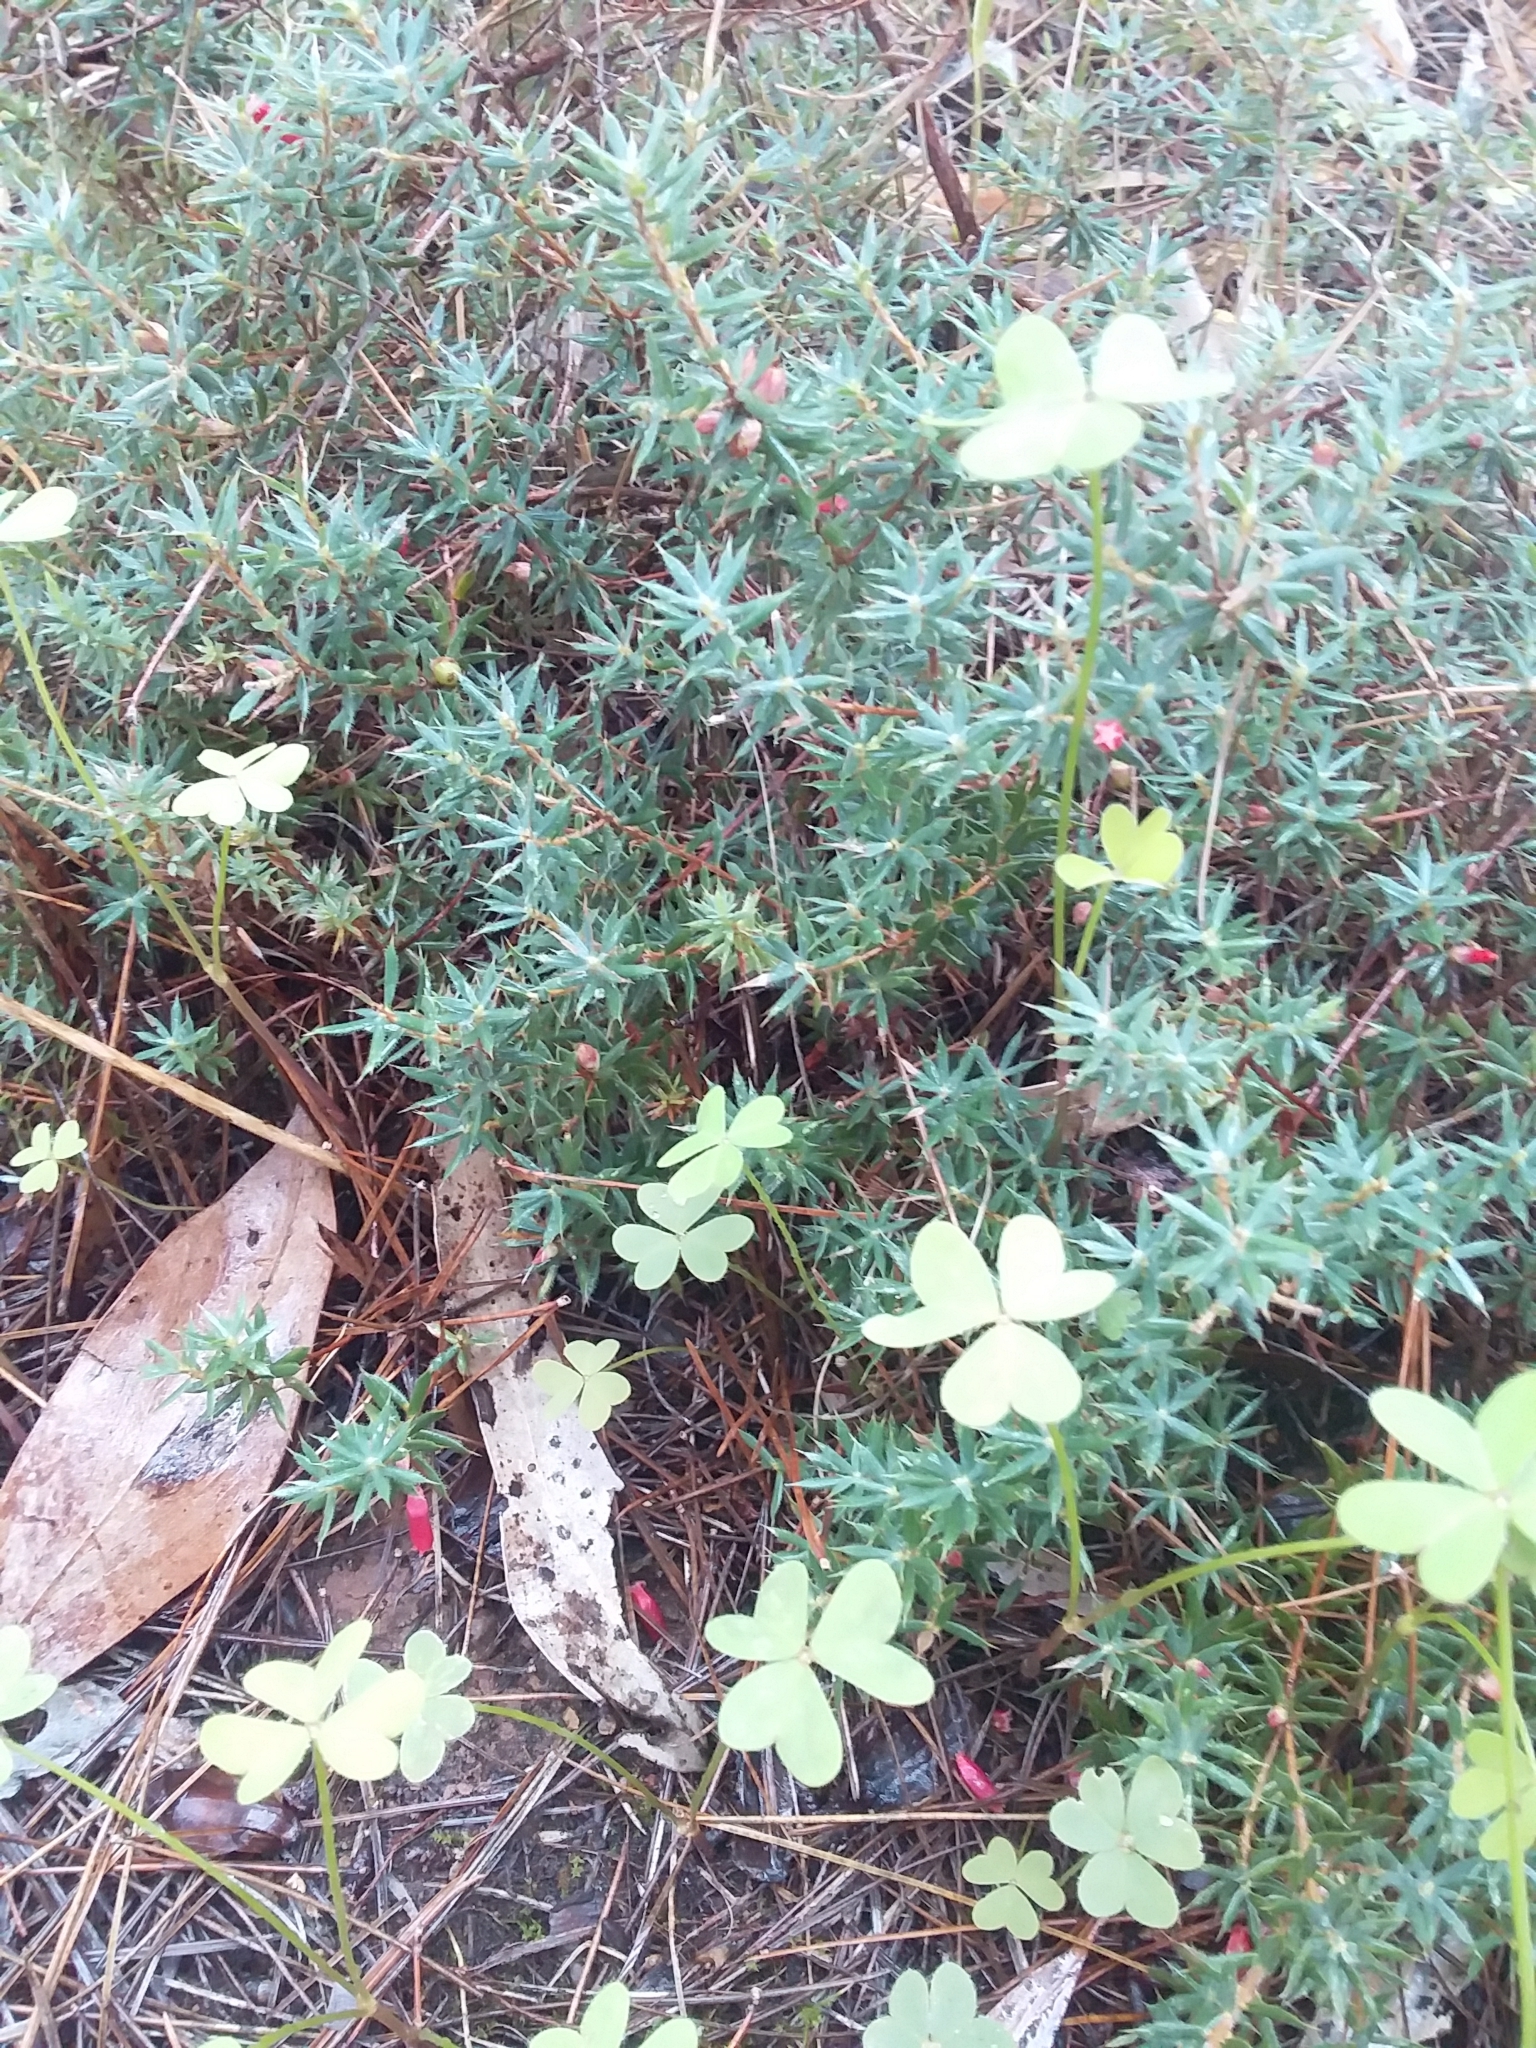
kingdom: Plantae
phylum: Tracheophyta
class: Magnoliopsida
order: Ericales
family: Ericaceae
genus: Styphelia
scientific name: Styphelia humifusa
